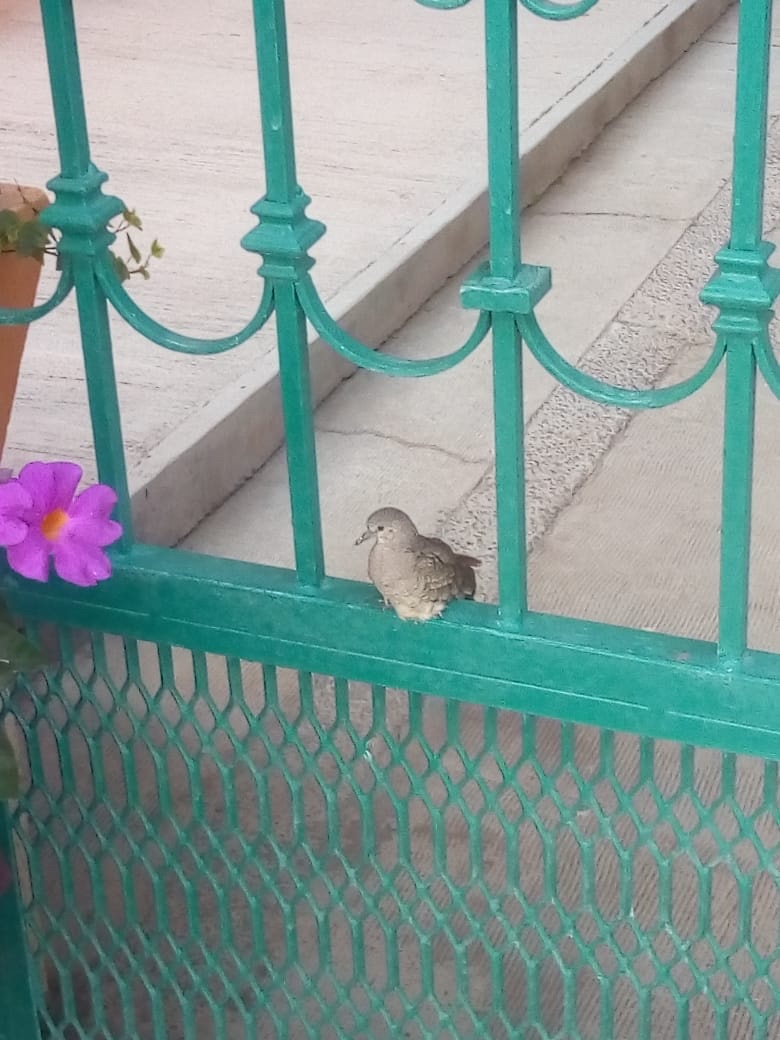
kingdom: Animalia
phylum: Chordata
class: Aves
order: Columbiformes
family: Columbidae
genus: Columbina
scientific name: Columbina inca
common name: Inca dove
